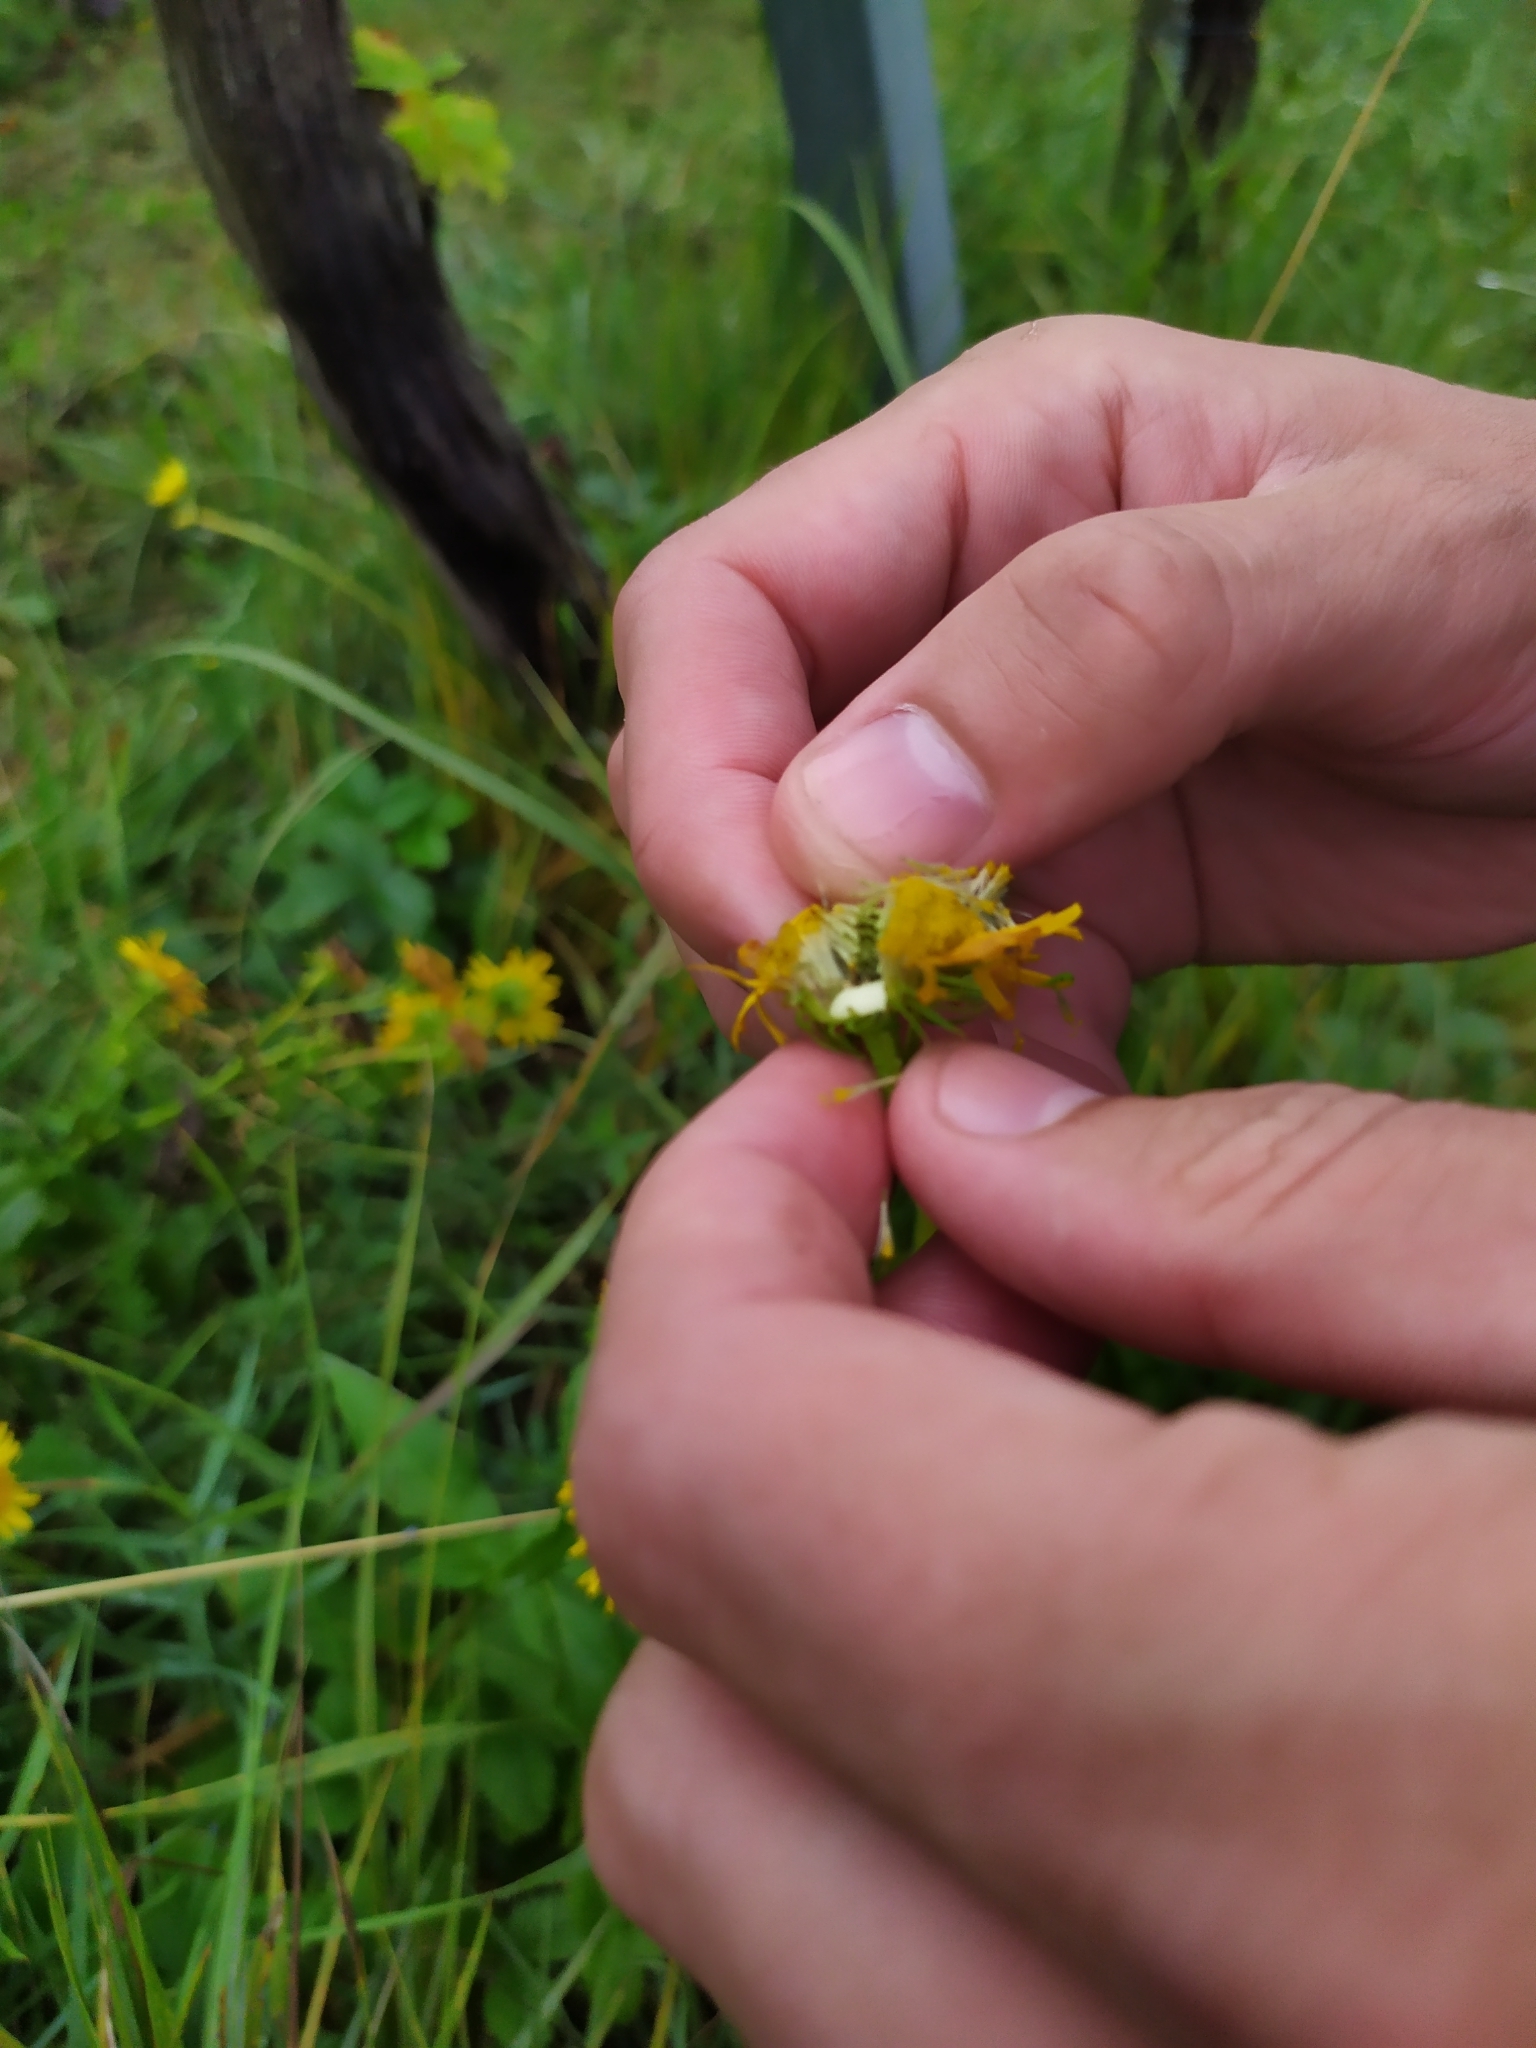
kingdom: Plantae
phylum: Tracheophyta
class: Magnoliopsida
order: Asterales
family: Asteraceae
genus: Pentanema
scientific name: Pentanema britannicum
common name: British elecampane
